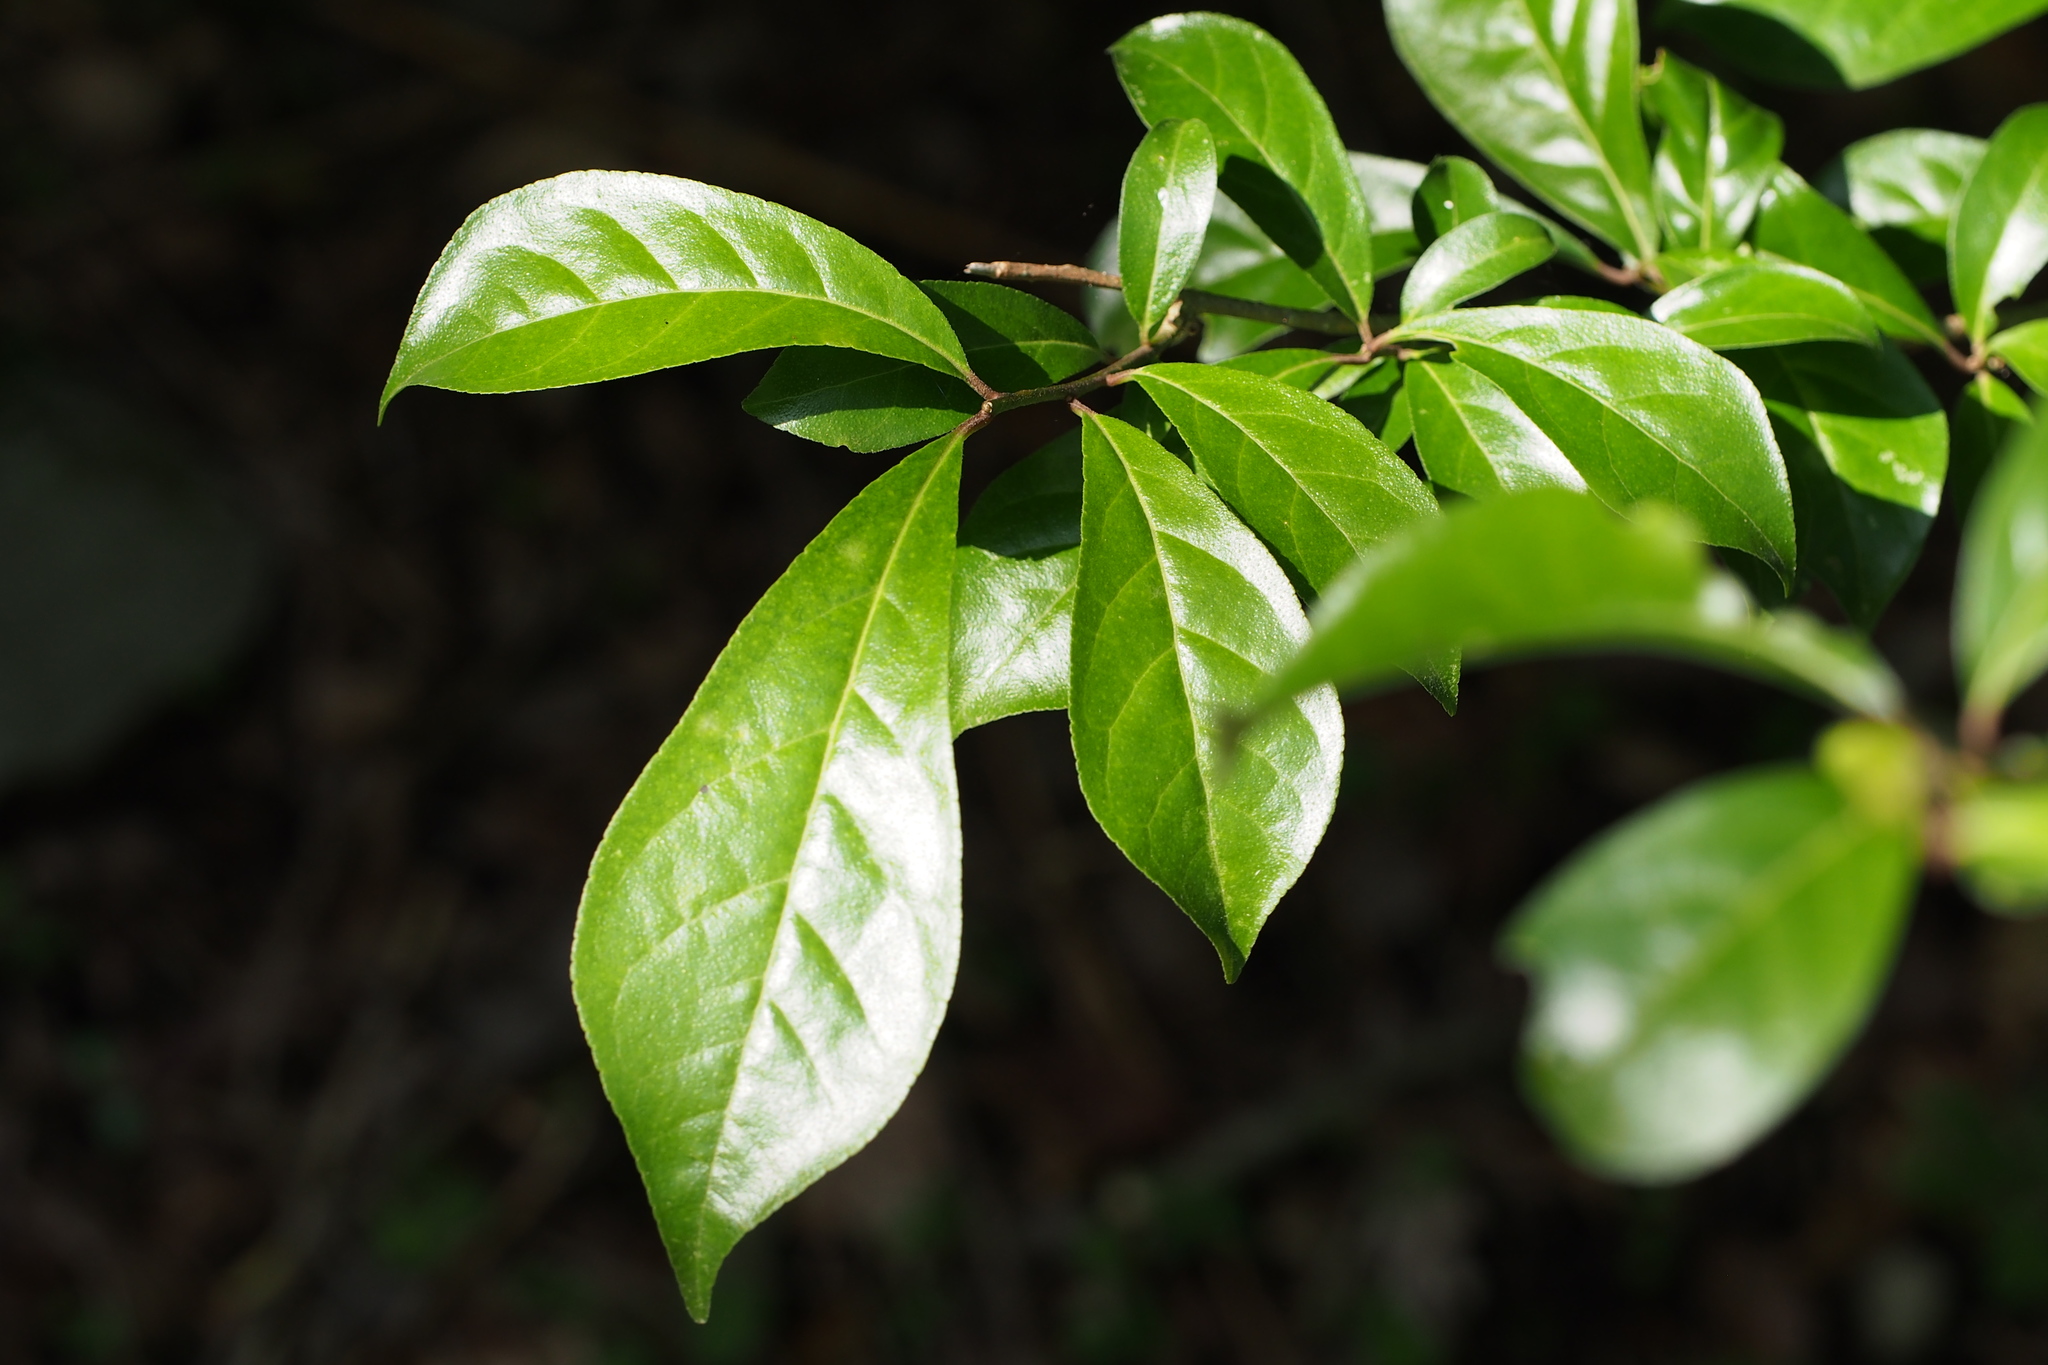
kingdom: Plantae
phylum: Tracheophyta
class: Magnoliopsida
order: Sapindales
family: Rutaceae
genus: Orixa
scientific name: Orixa japonica
